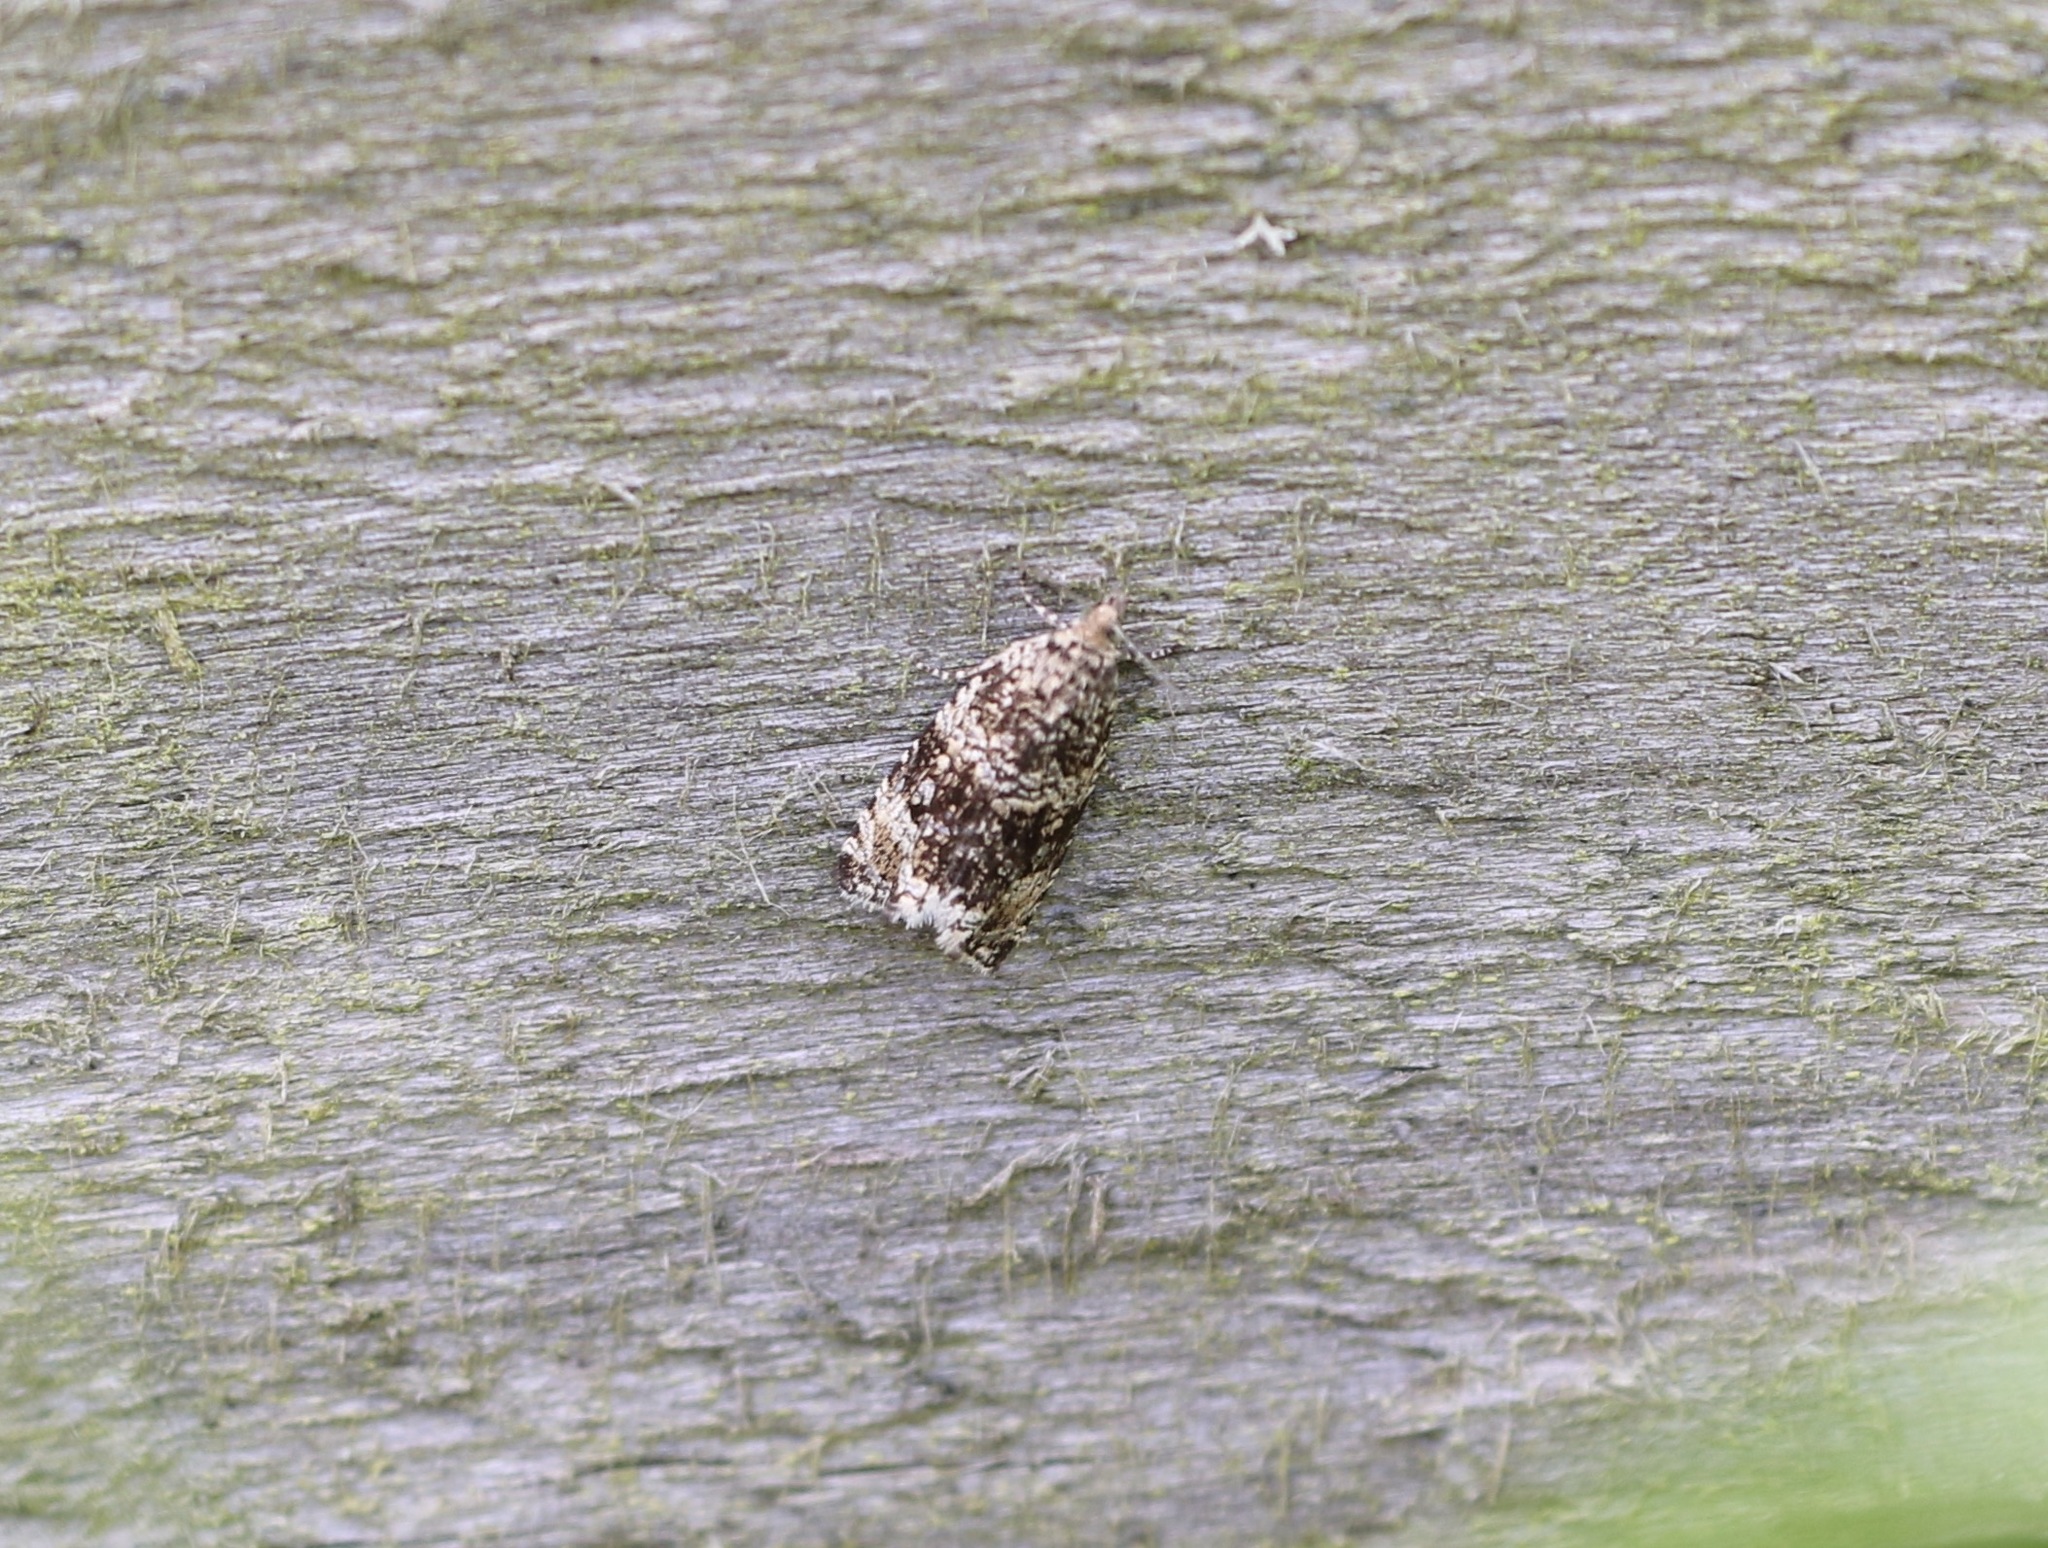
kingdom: Animalia
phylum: Arthropoda
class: Insecta
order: Lepidoptera
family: Tortricidae
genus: Syricoris
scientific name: Syricoris lacunana
